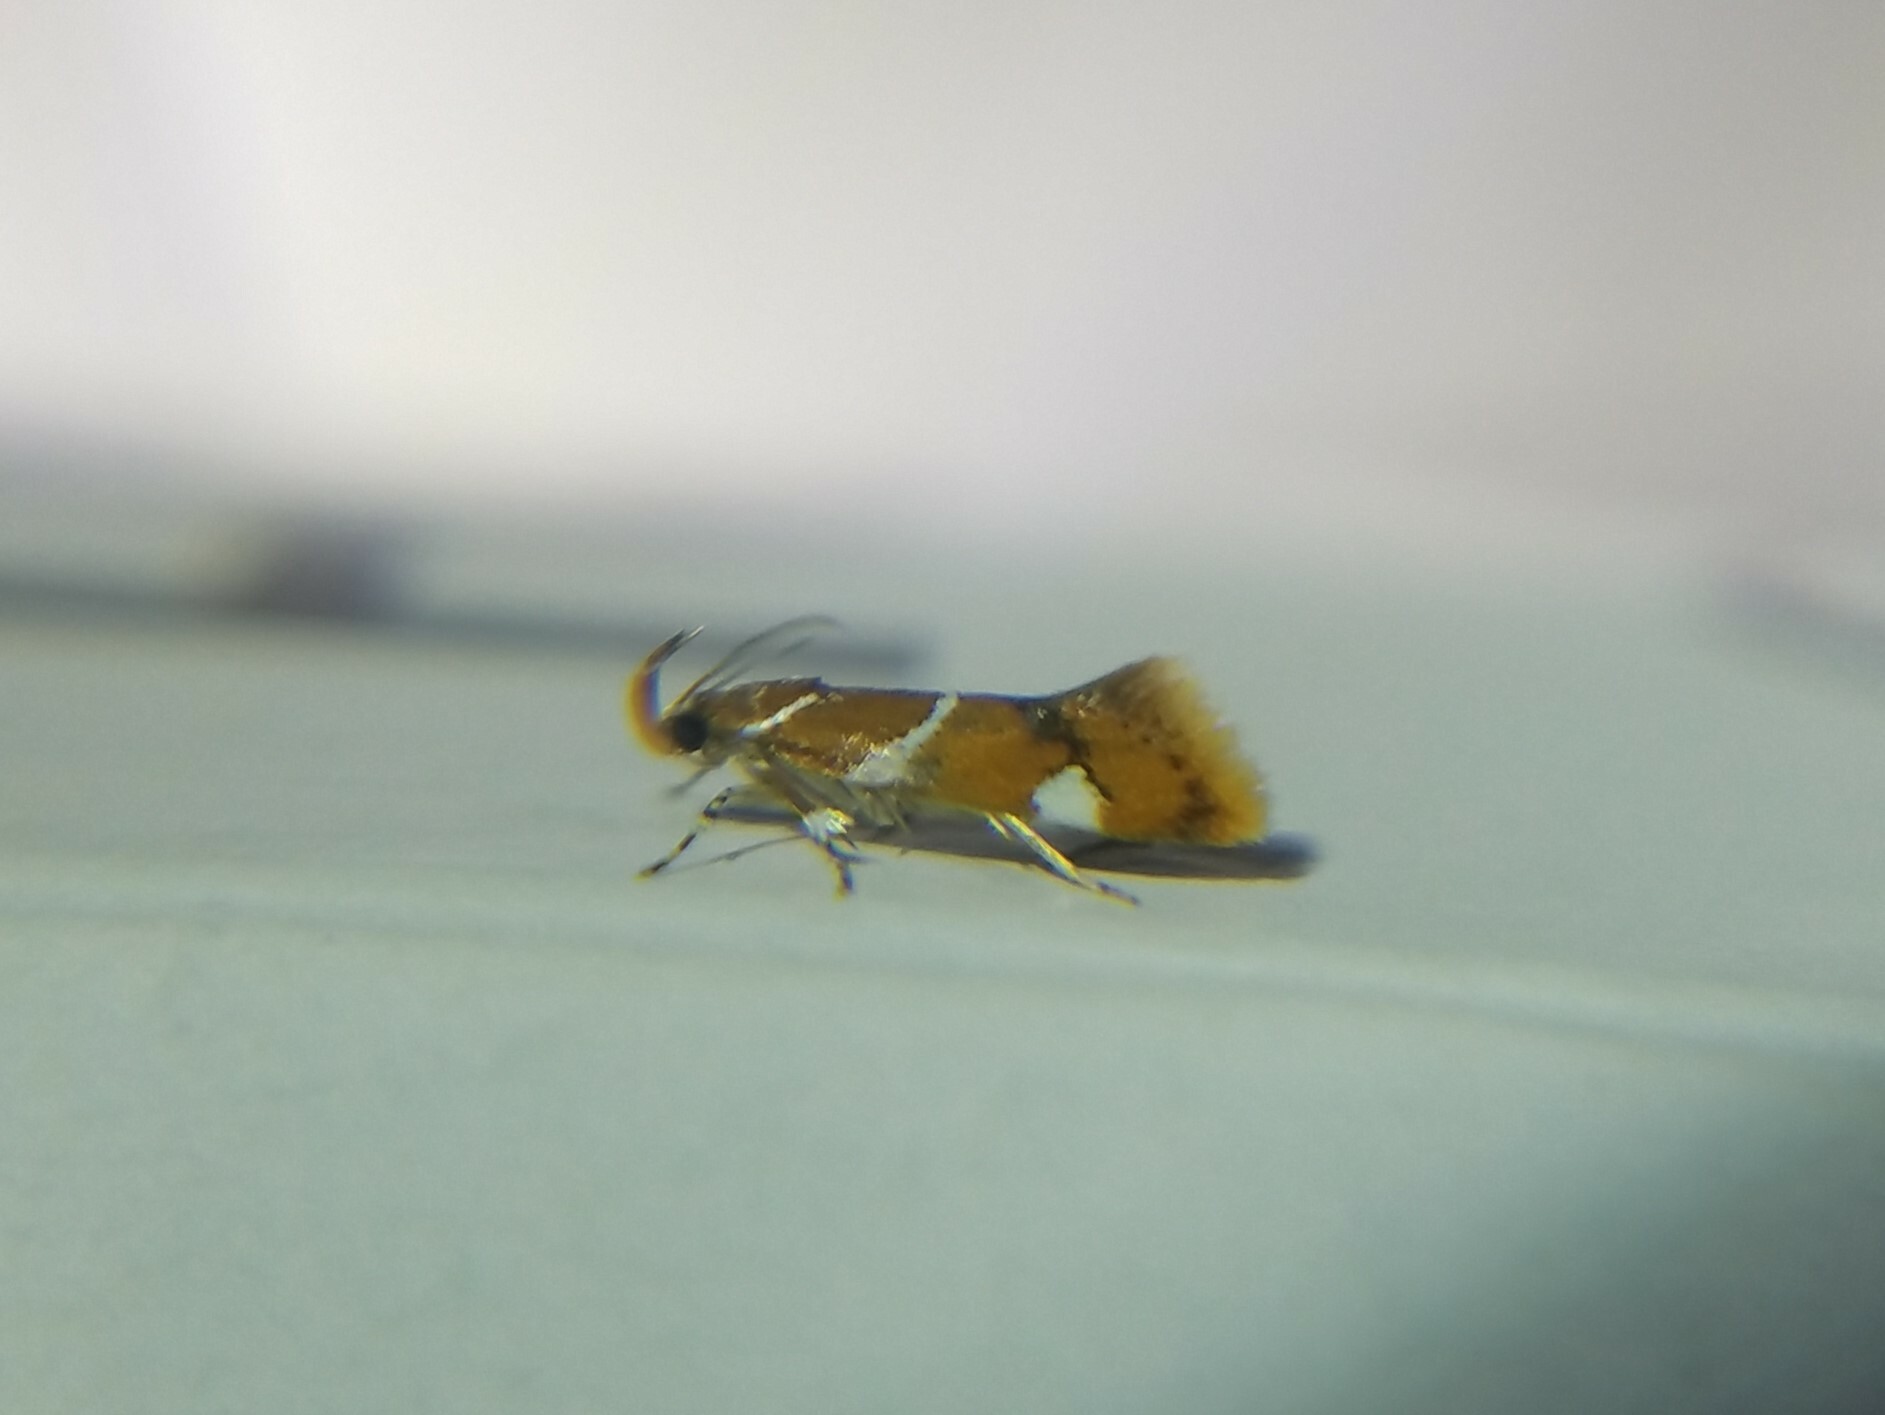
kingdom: Animalia
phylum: Arthropoda
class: Insecta
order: Lepidoptera
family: Oecophoridae
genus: Promalactis
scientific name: Promalactis suzukiella
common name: Moth
